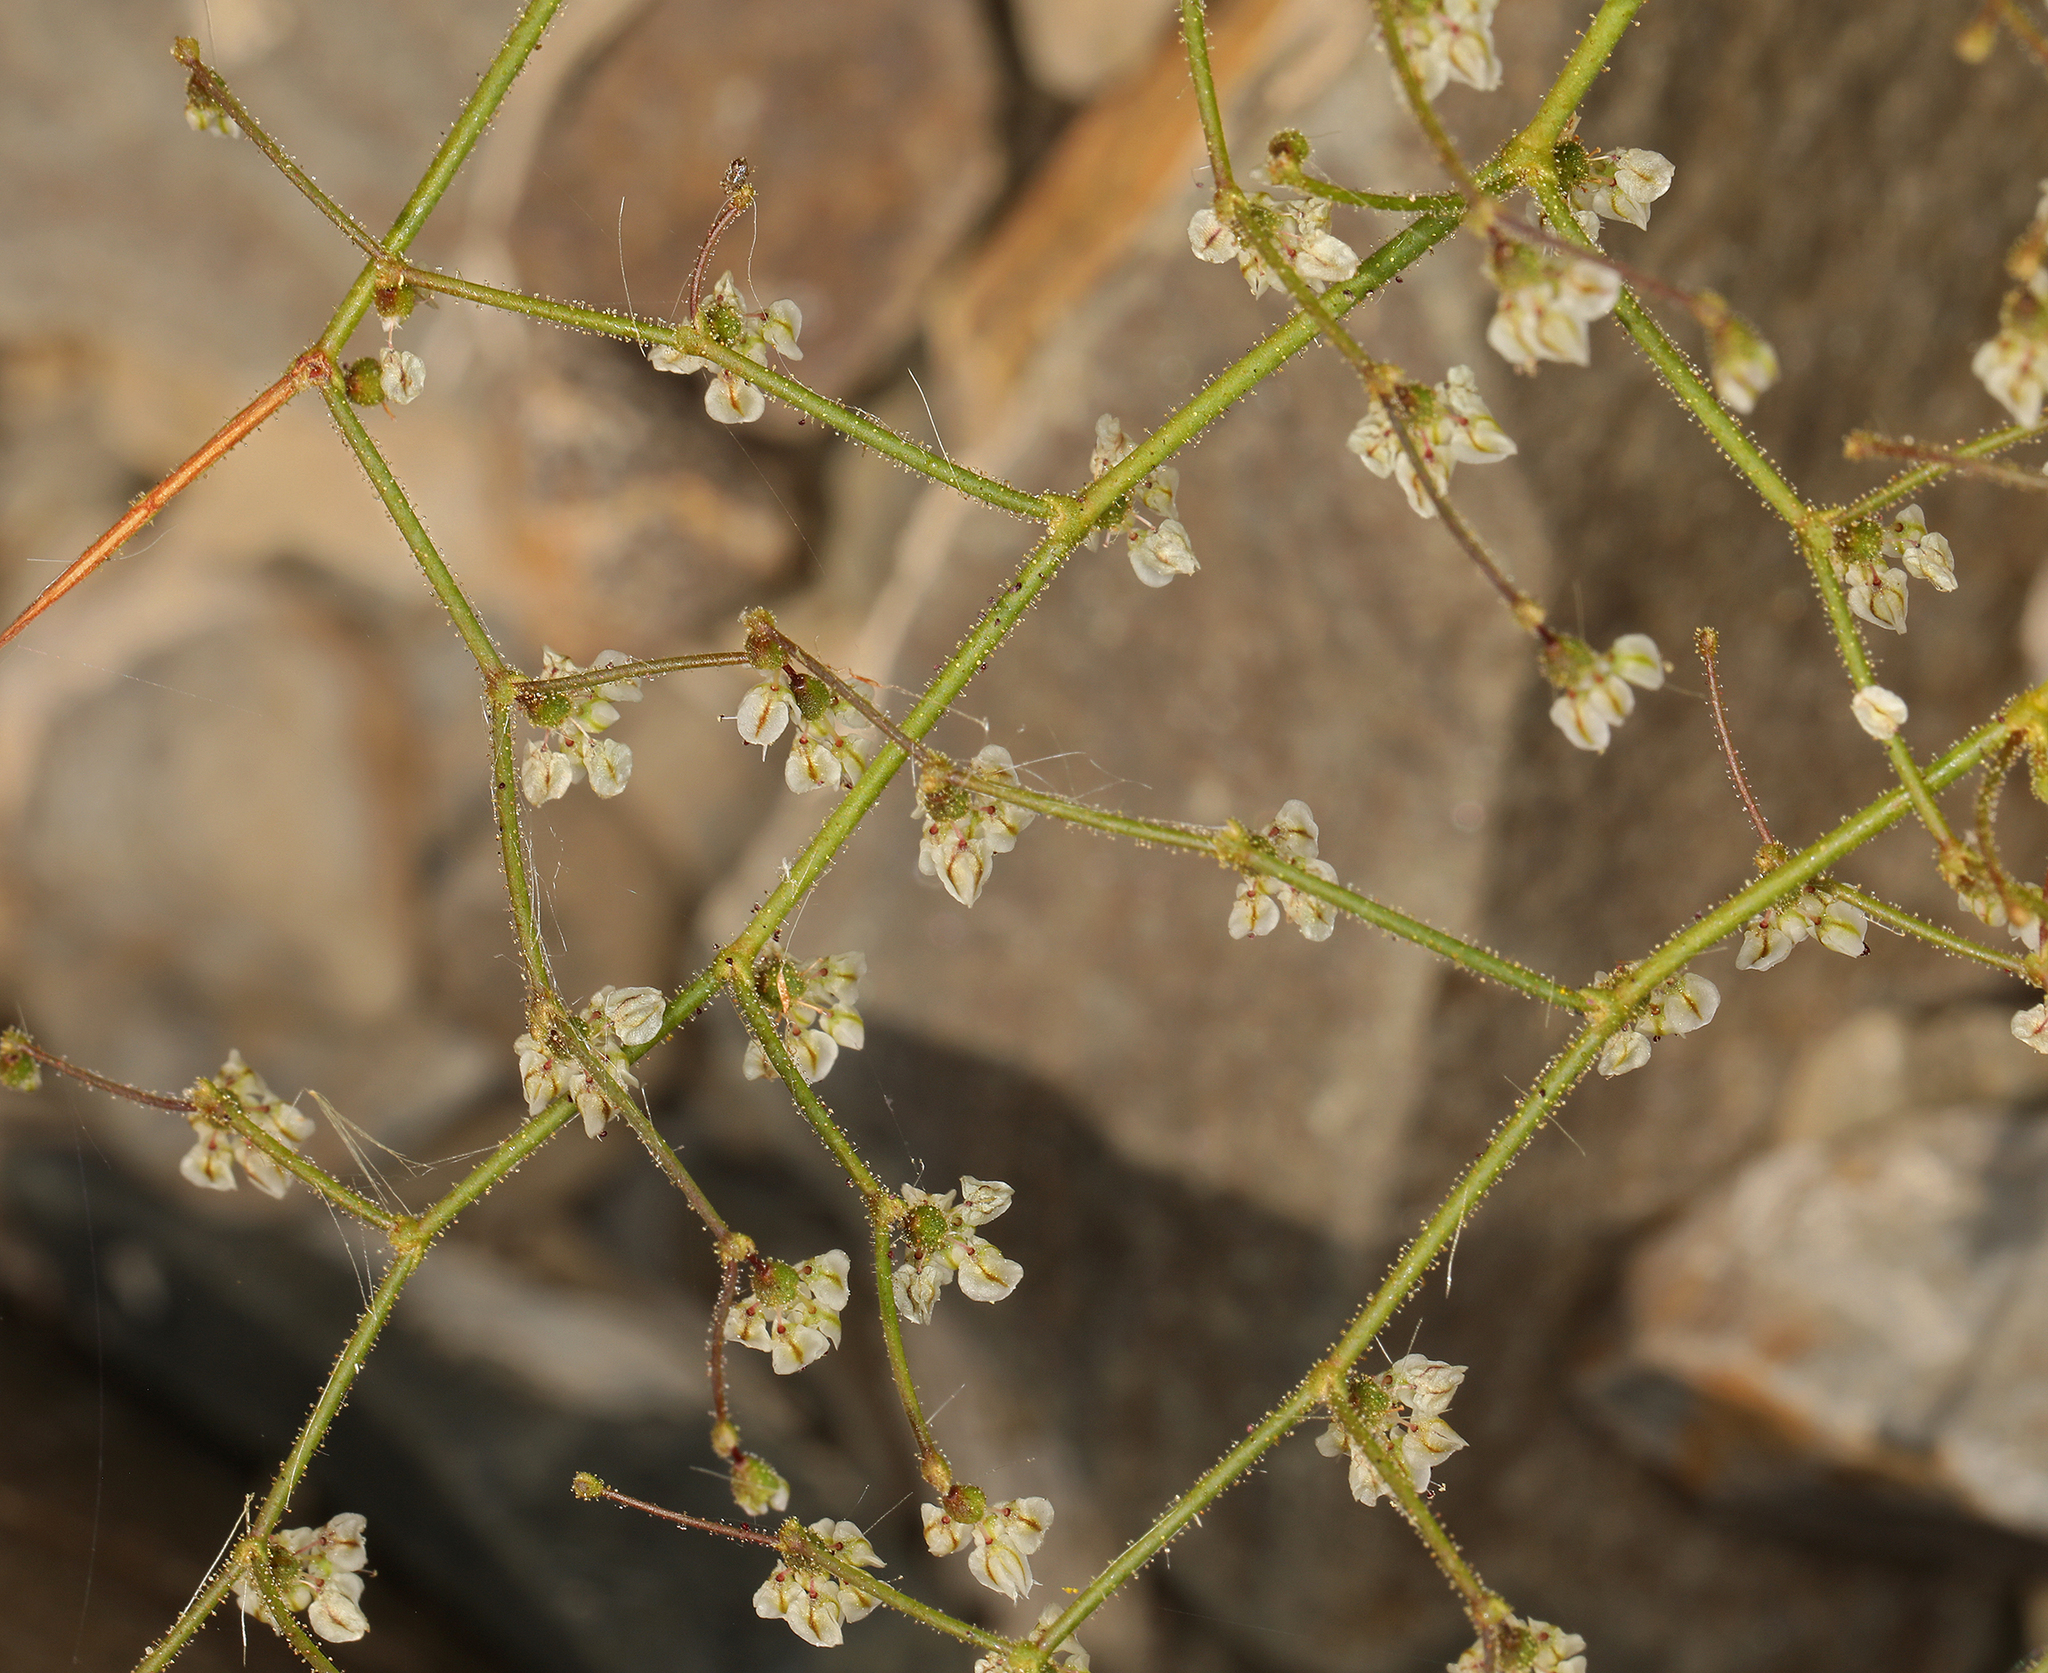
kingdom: Plantae
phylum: Tracheophyta
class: Magnoliopsida
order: Caryophyllales
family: Polygonaceae
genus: Eriogonum
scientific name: Eriogonum brachypodum
